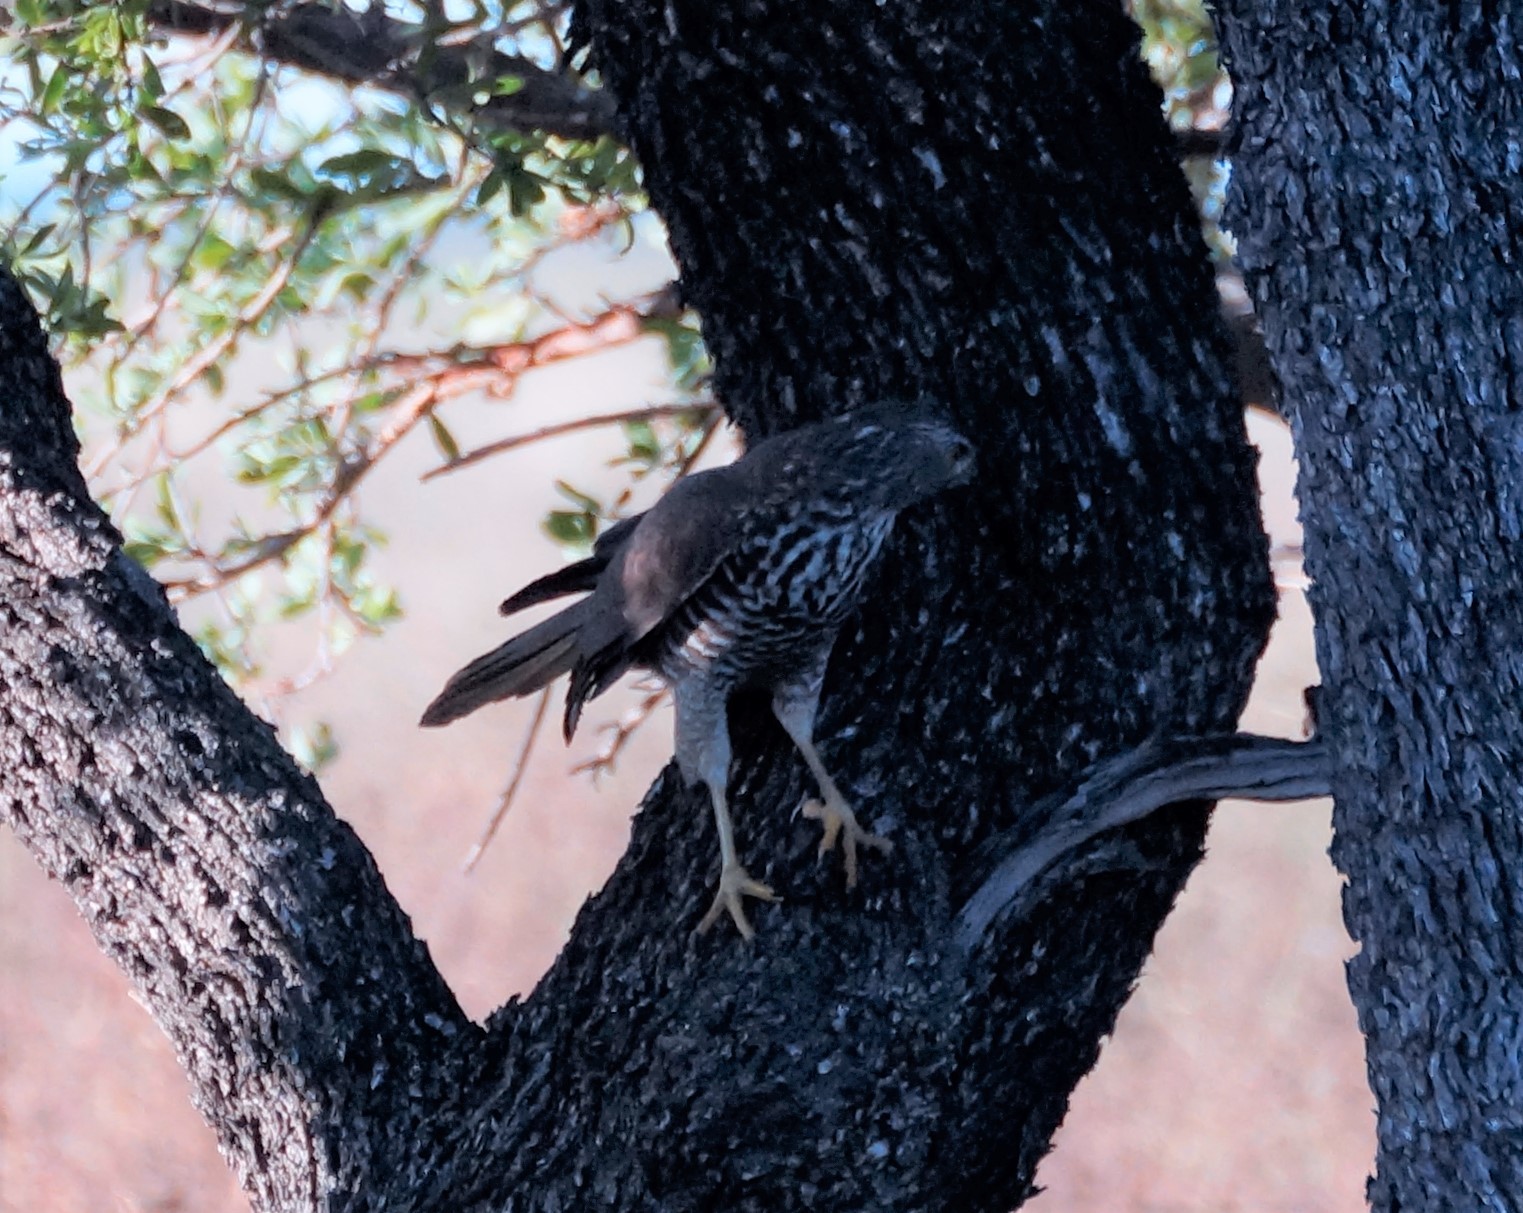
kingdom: Animalia
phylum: Chordata
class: Aves
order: Accipitriformes
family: Accipitridae
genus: Accipiter
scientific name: Accipiter fasciatus
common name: Brown goshawk
